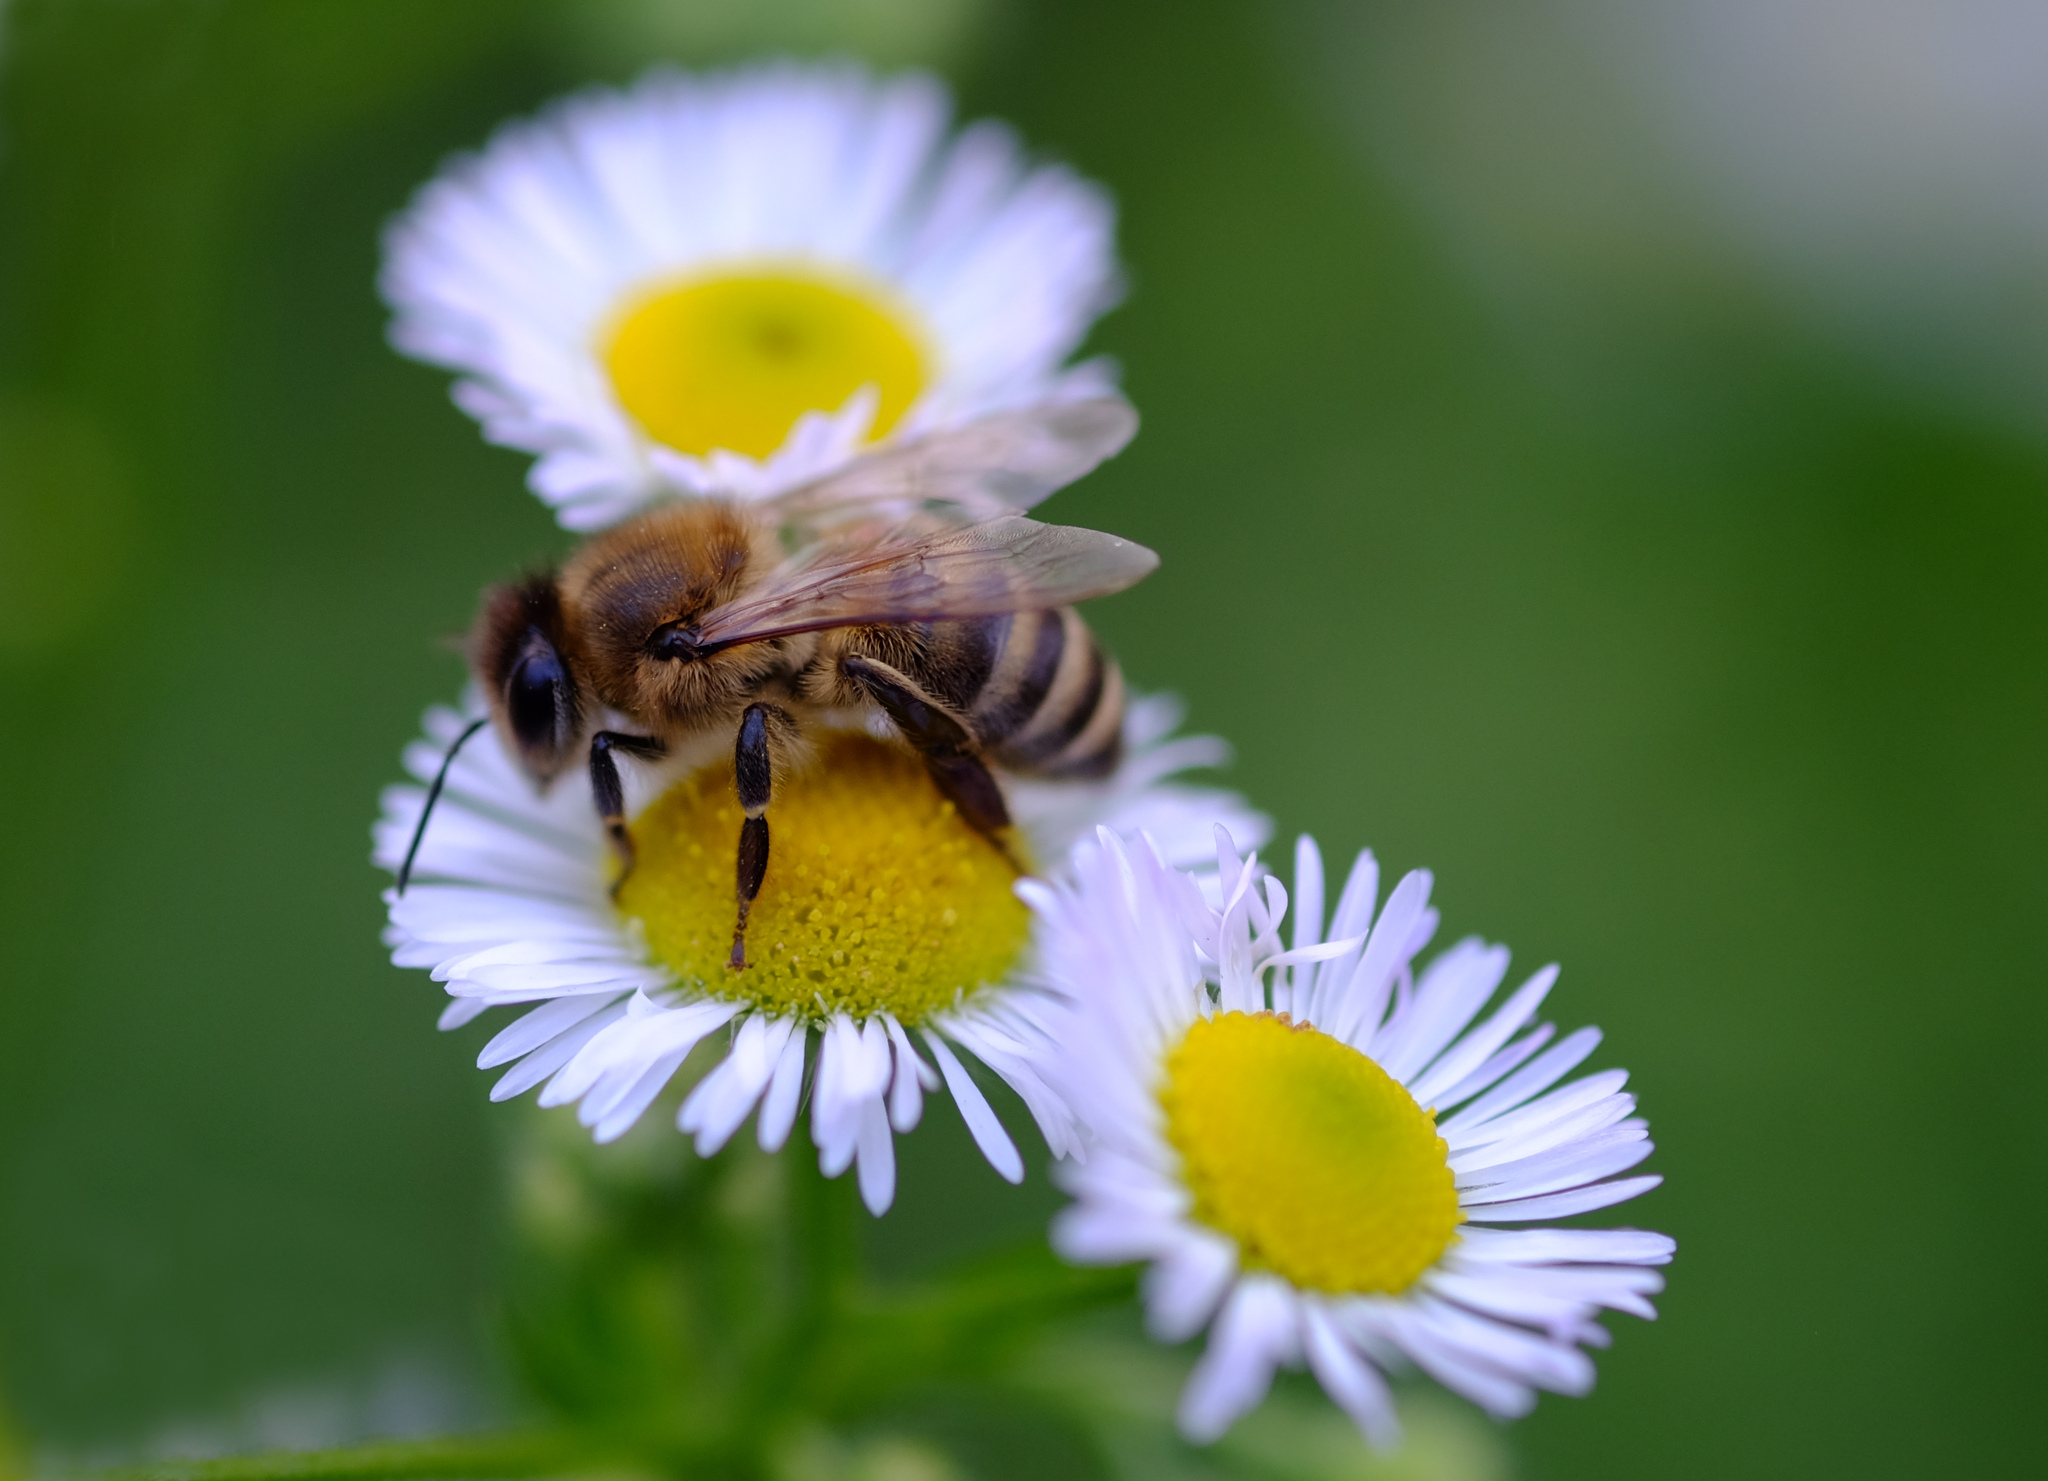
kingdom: Animalia
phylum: Arthropoda
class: Insecta
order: Hymenoptera
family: Apidae
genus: Apis
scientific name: Apis mellifera
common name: Honey bee
